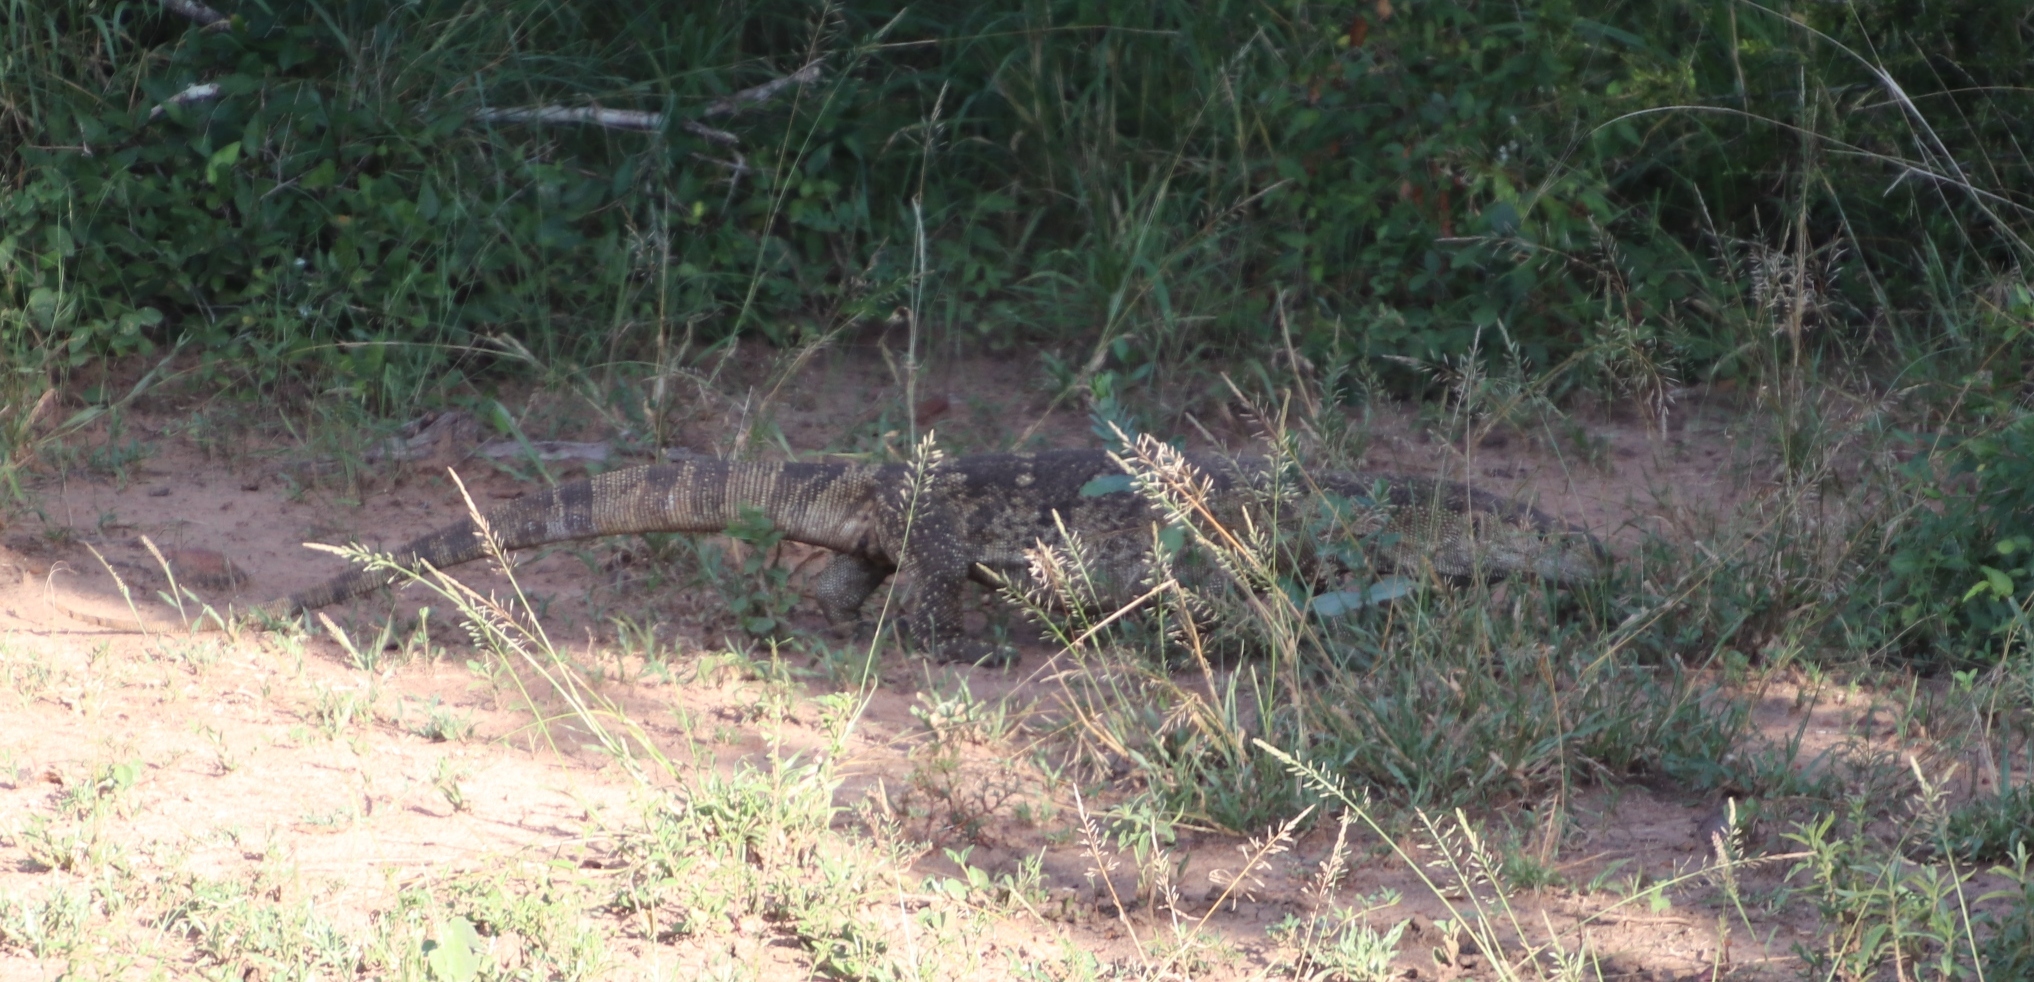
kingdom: Animalia
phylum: Chordata
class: Squamata
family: Varanidae
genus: Varanus
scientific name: Varanus albigularis
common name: White-throated monitor
